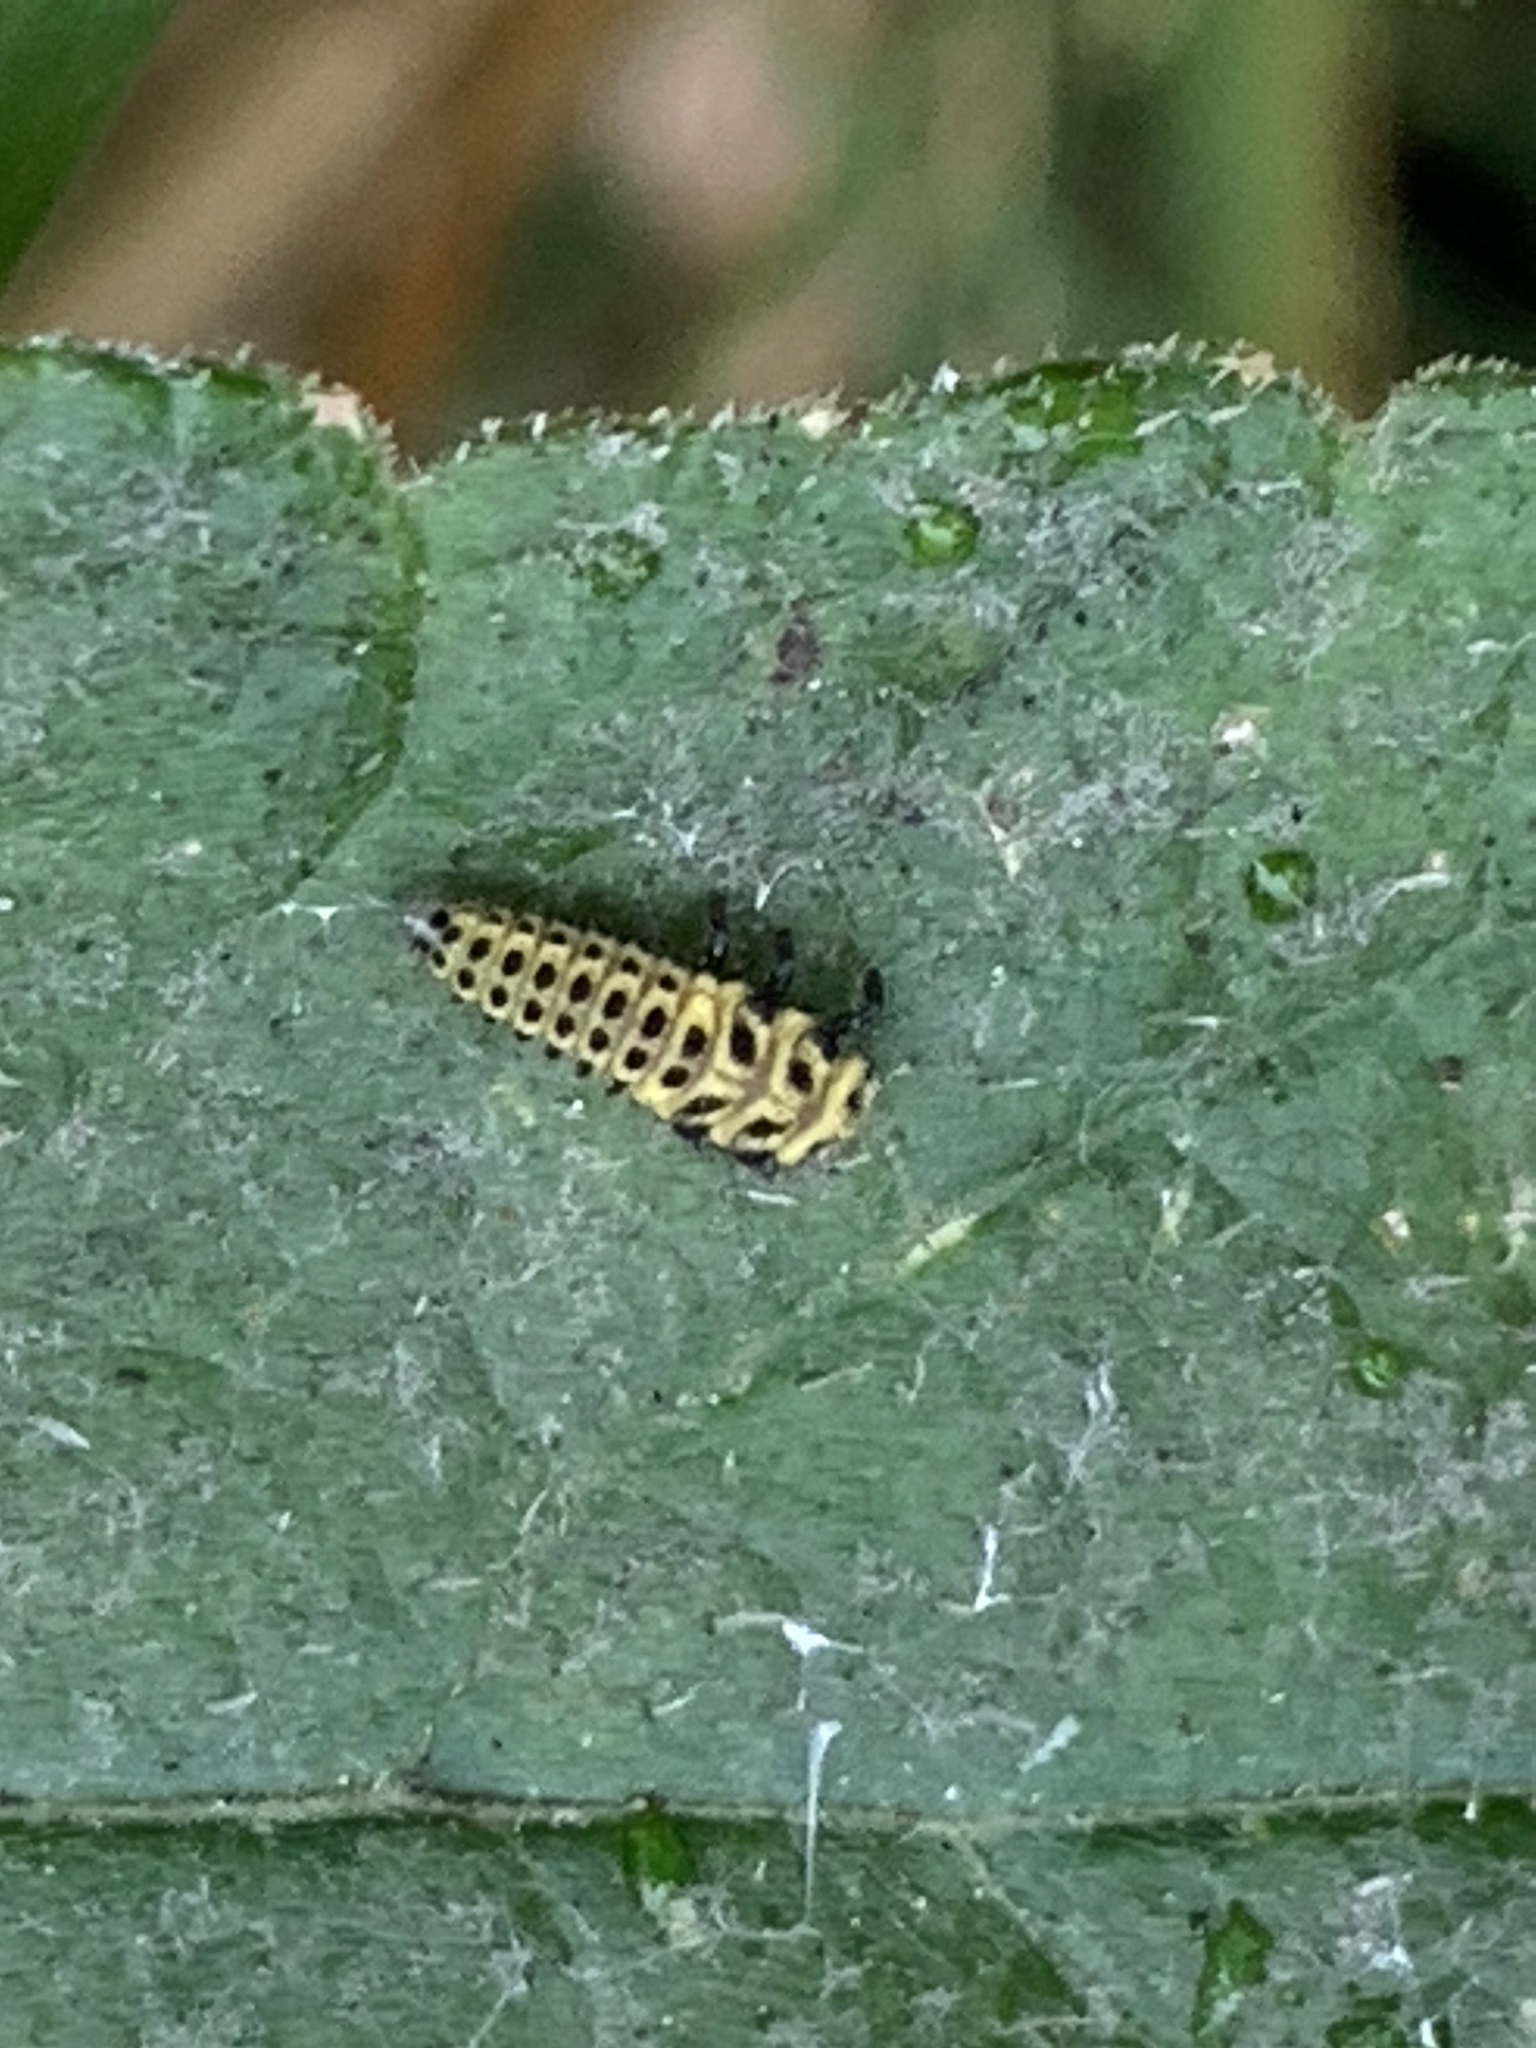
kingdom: Animalia
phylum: Arthropoda
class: Insecta
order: Coleoptera
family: Coccinellidae
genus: Psyllobora
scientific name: Psyllobora vigintiduopunctata
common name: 22-spot ladybird
